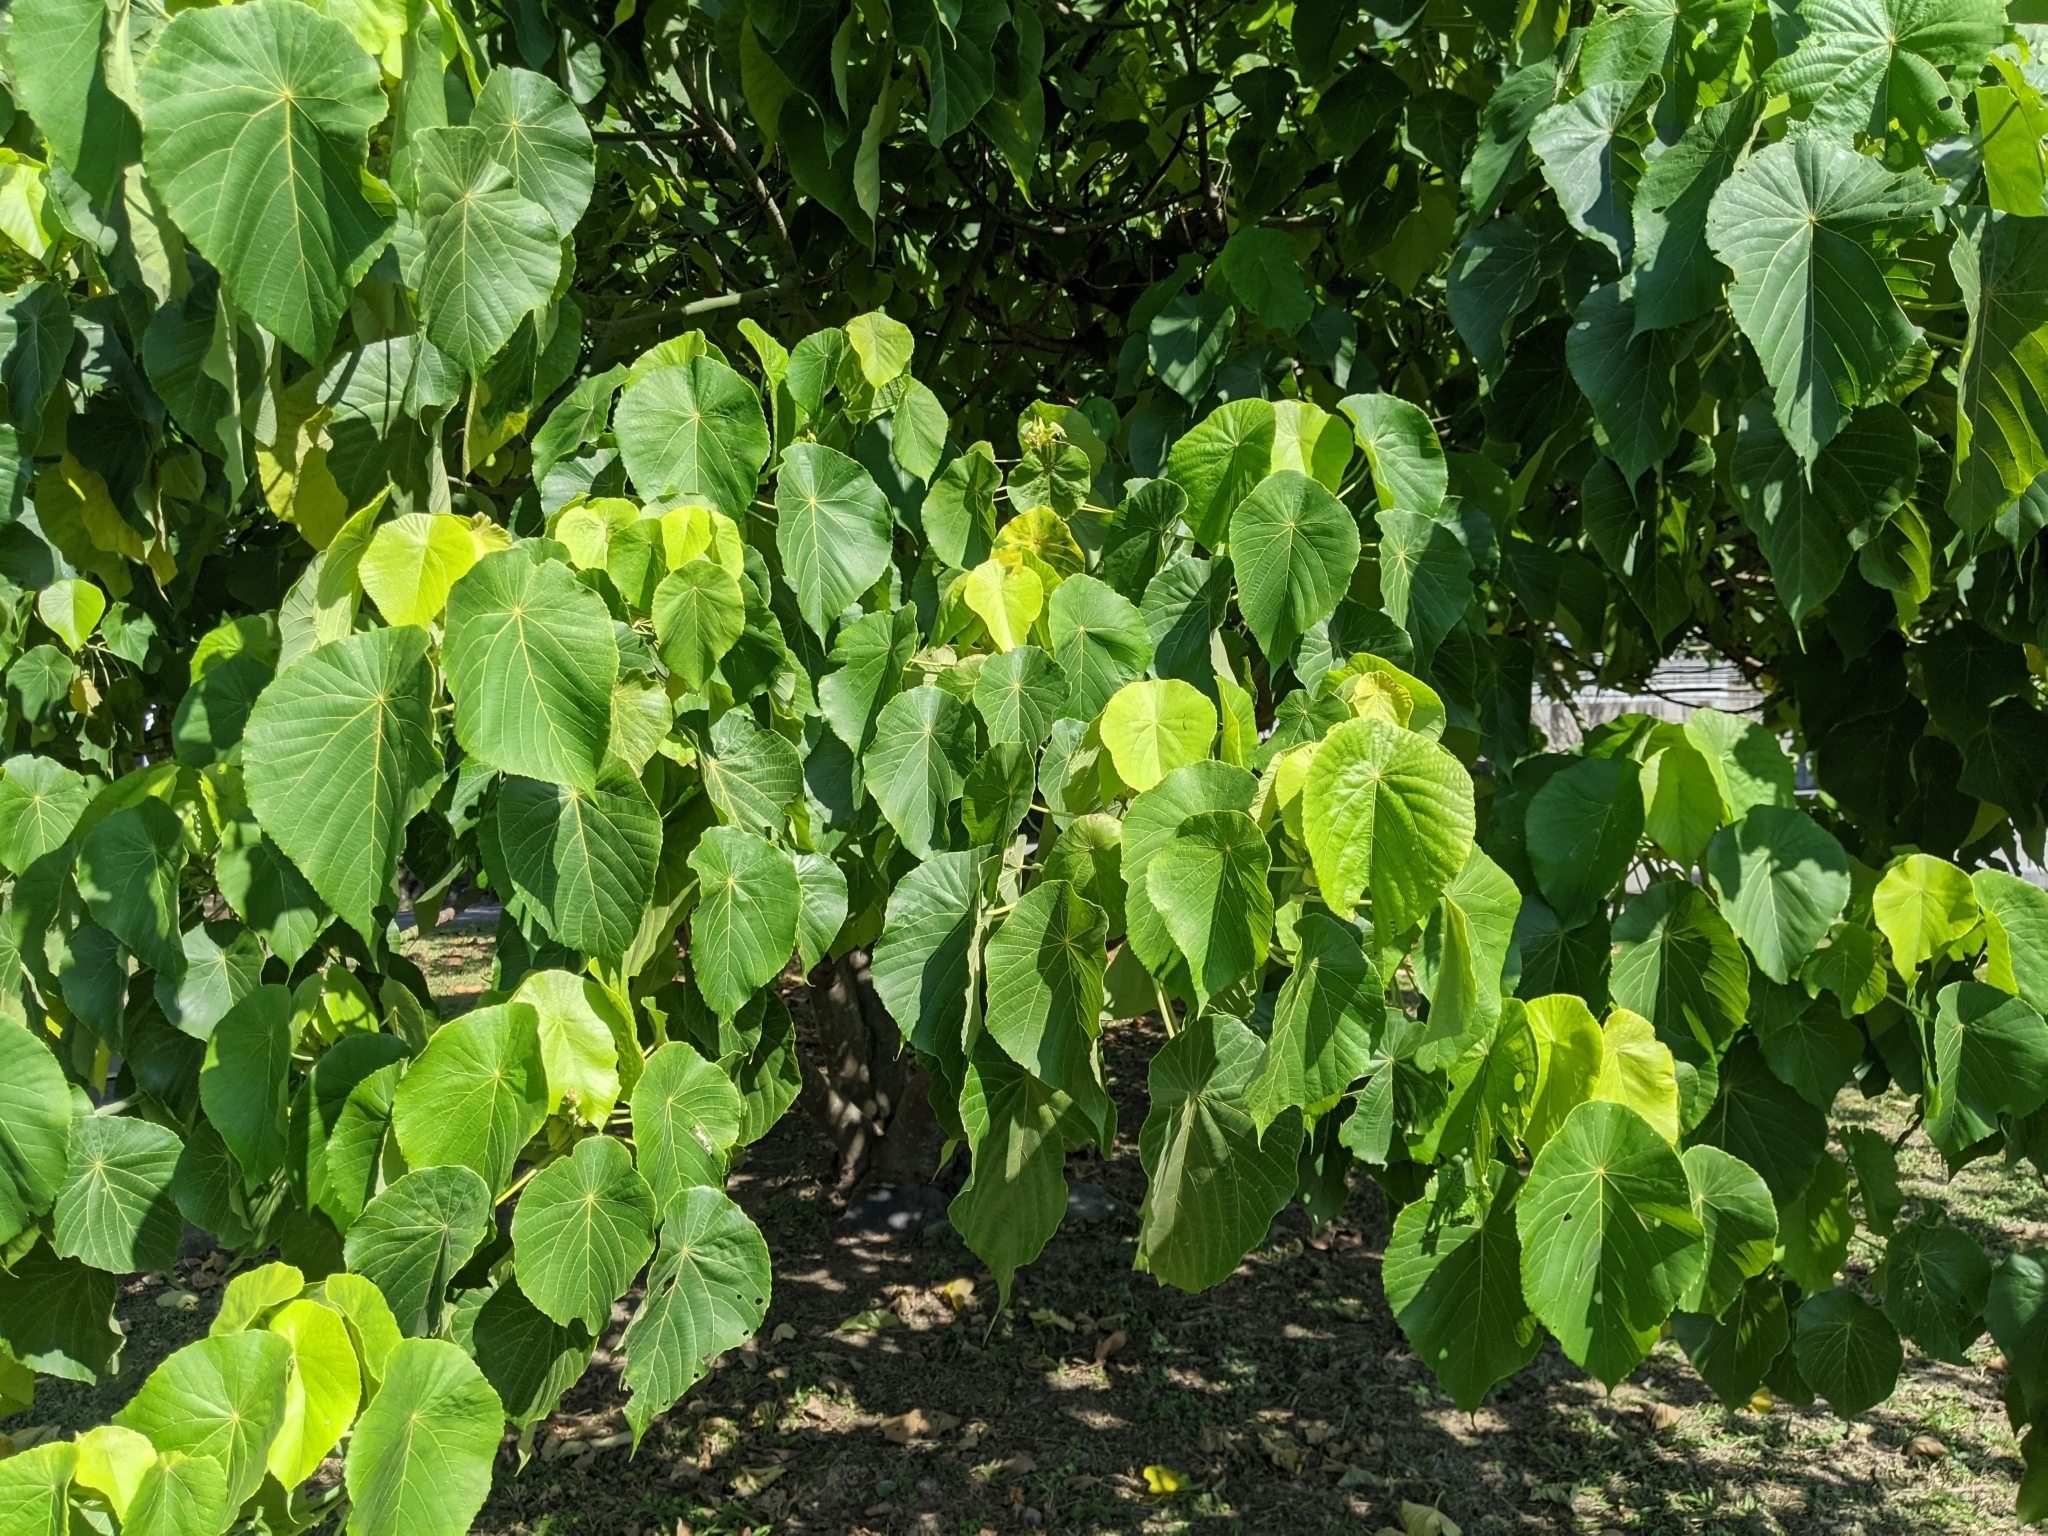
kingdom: Plantae
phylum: Tracheophyta
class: Magnoliopsida
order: Malpighiales
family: Euphorbiaceae
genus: Macaranga
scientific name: Macaranga tanarius
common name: Parasol leaf tree
